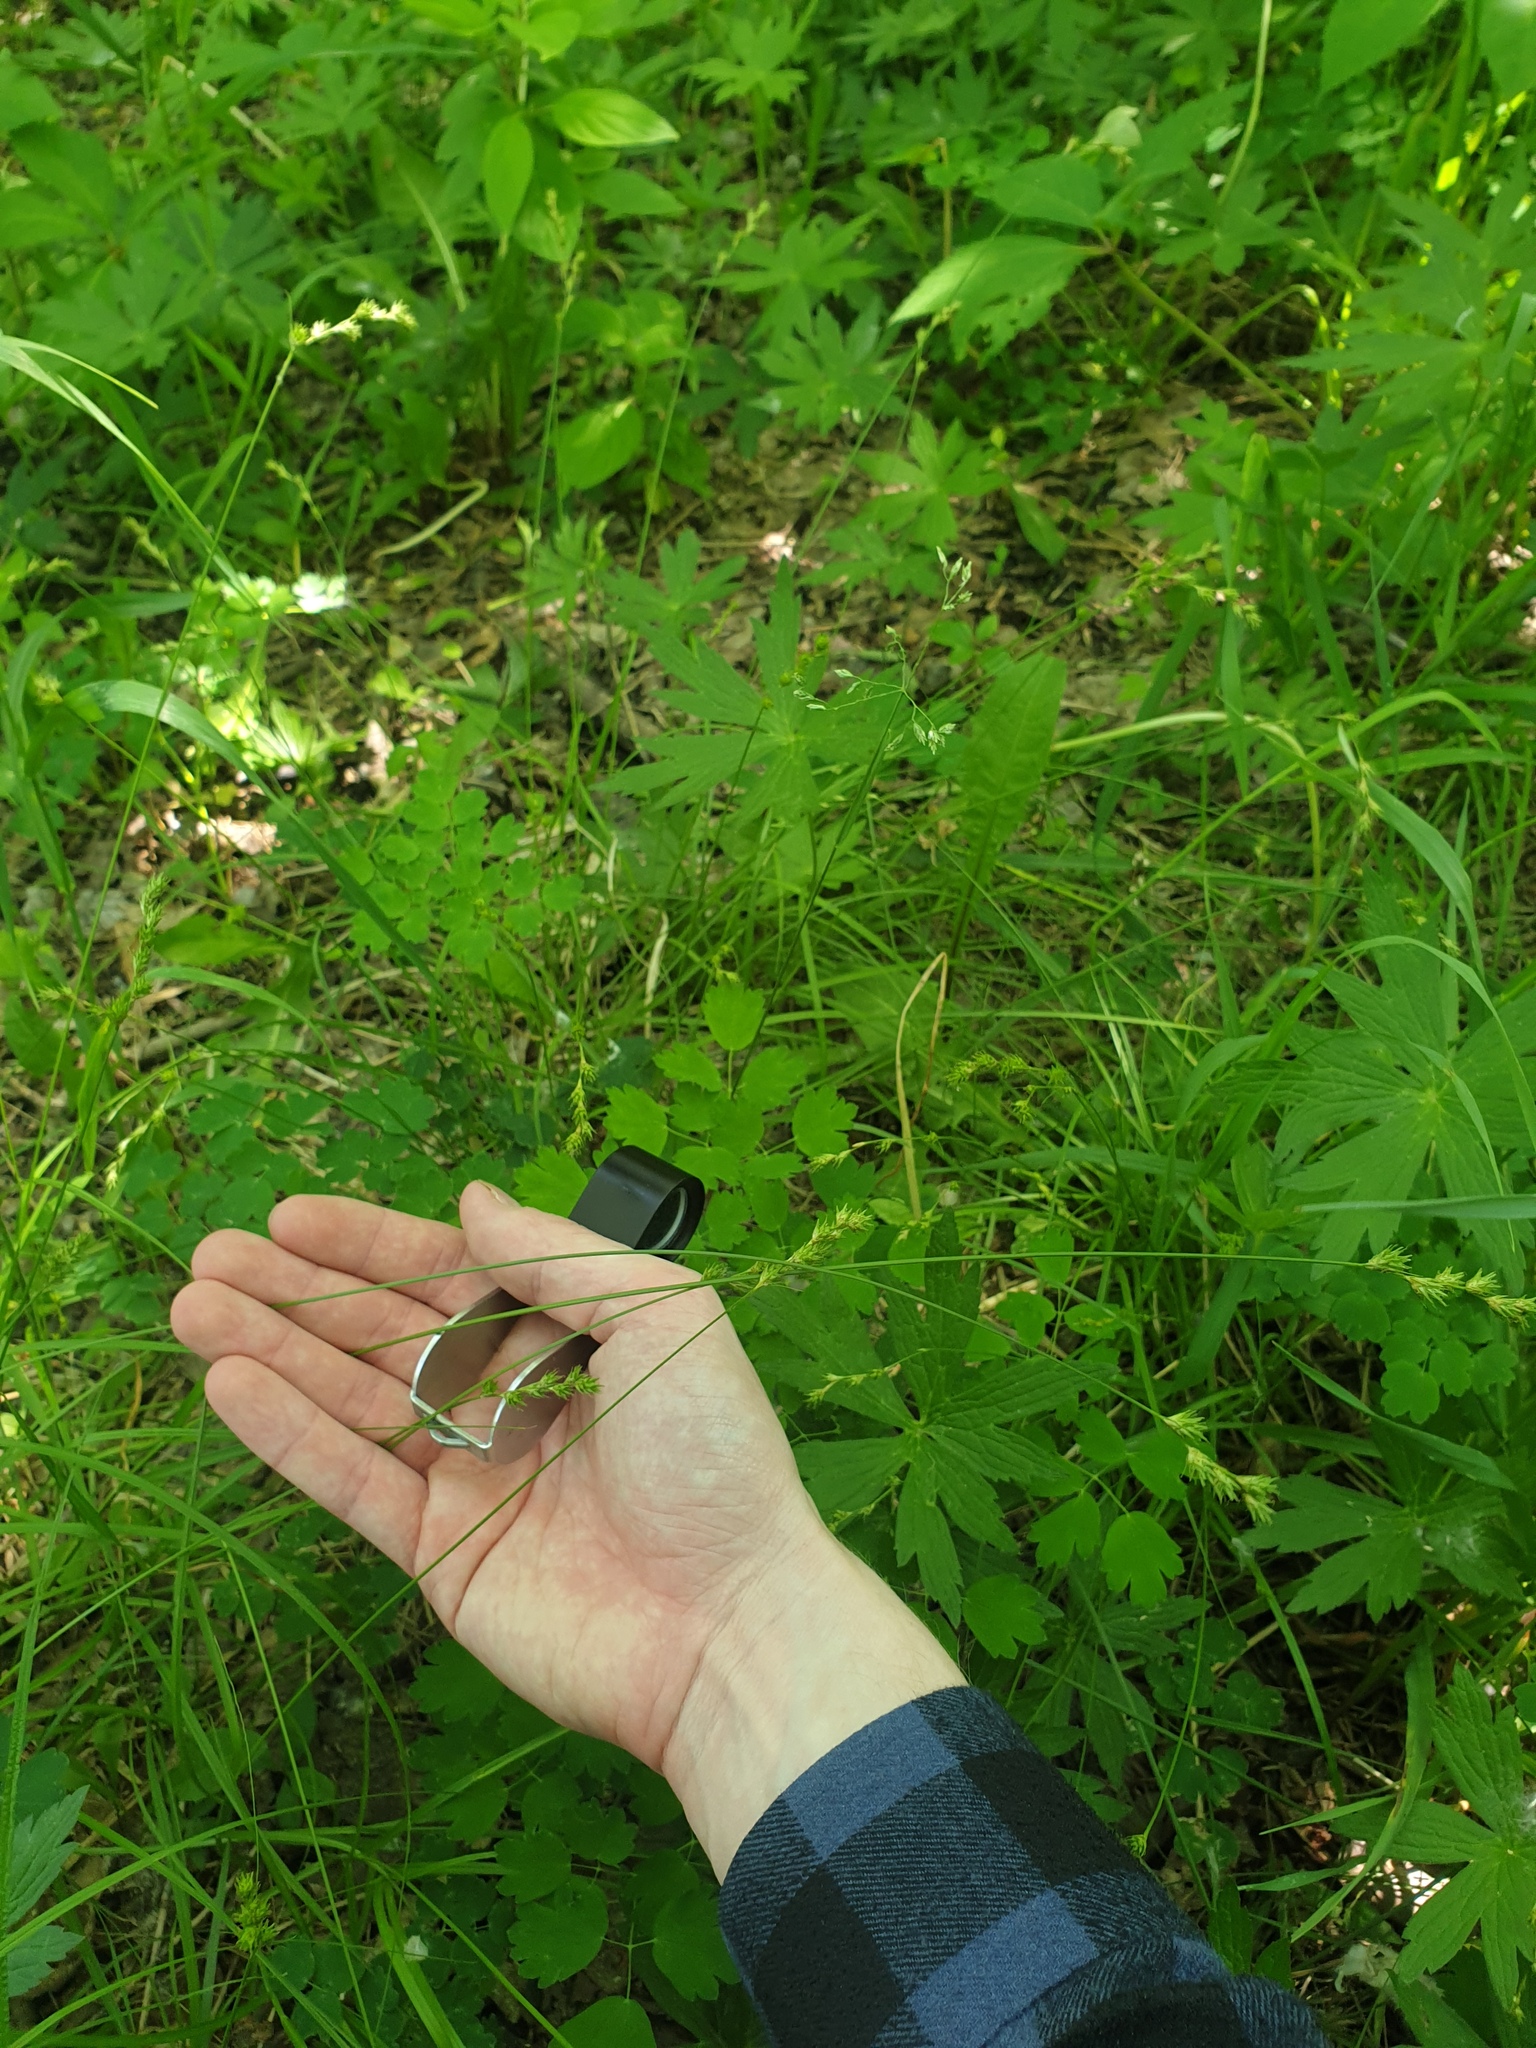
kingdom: Plantae
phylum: Tracheophyta
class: Liliopsida
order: Poales
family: Cyperaceae
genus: Carex
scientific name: Carex echinodes
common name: Marsh straw sedge
